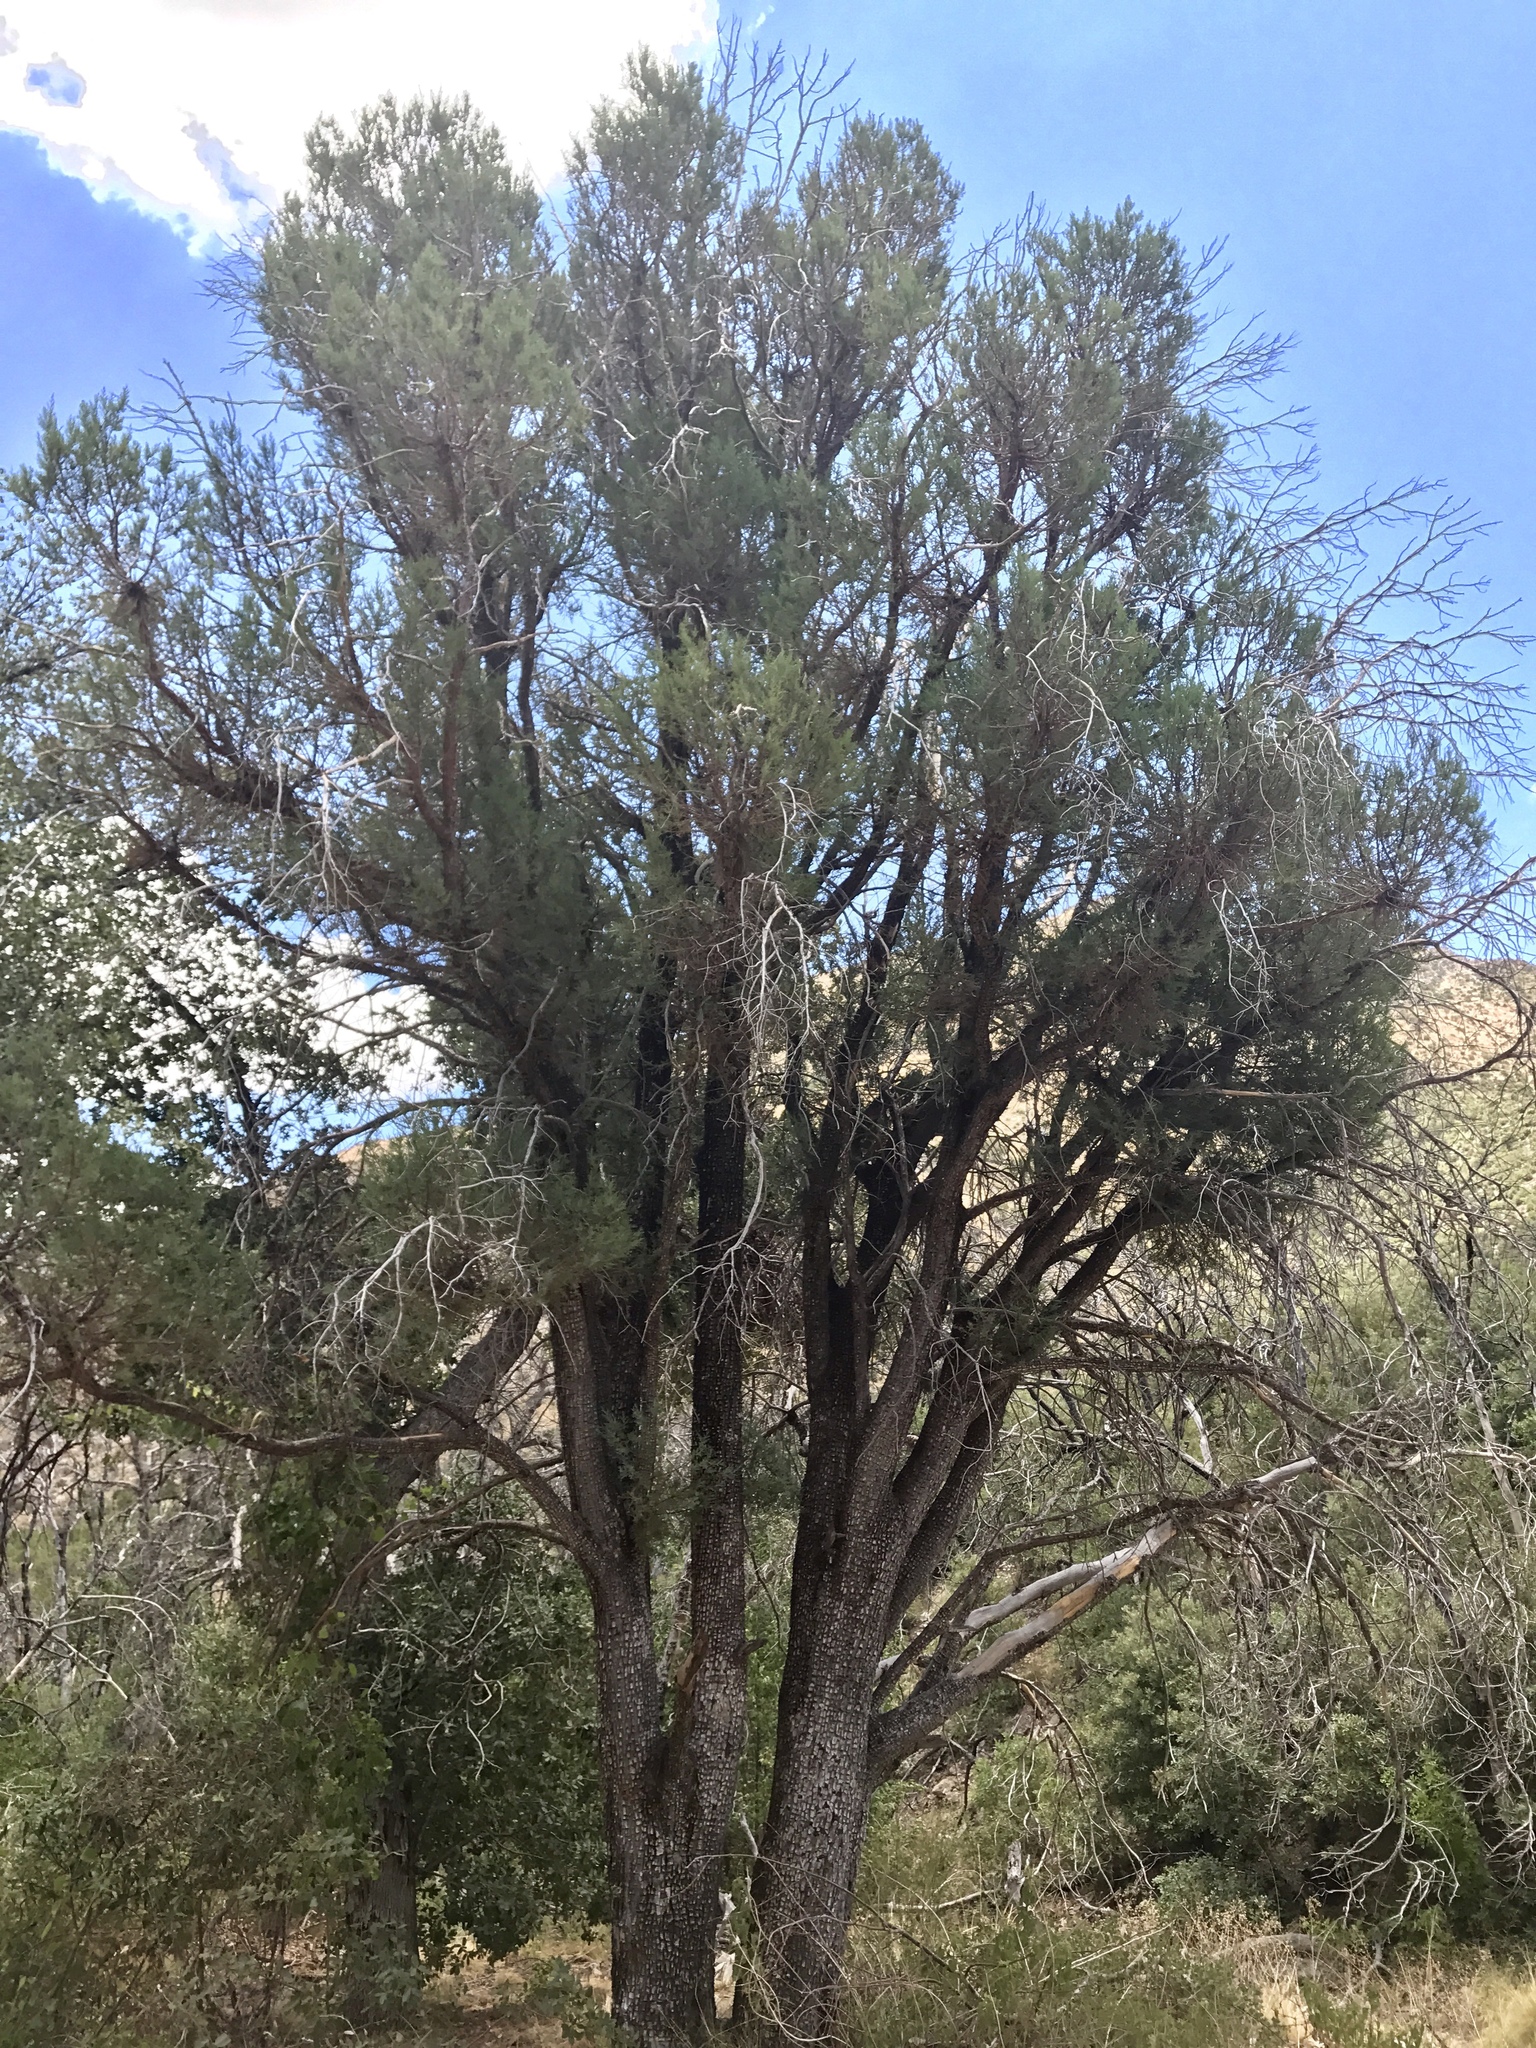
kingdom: Plantae
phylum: Tracheophyta
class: Pinopsida
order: Pinales
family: Cupressaceae
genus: Juniperus
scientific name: Juniperus deppeana
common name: Alligator juniper
